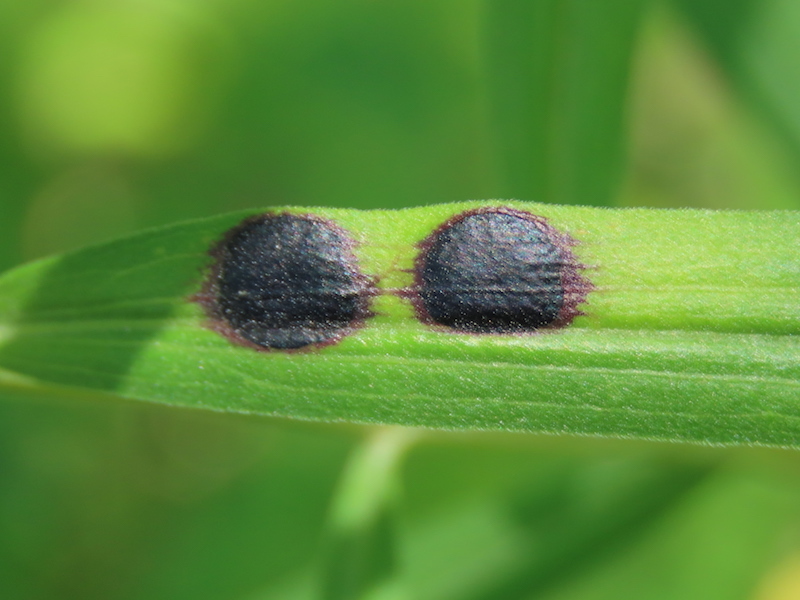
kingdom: Animalia
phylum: Arthropoda
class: Insecta
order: Diptera
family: Cecidomyiidae
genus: Asteromyia
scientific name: Asteromyia euthamiae
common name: Euthamia leaf gall midge
